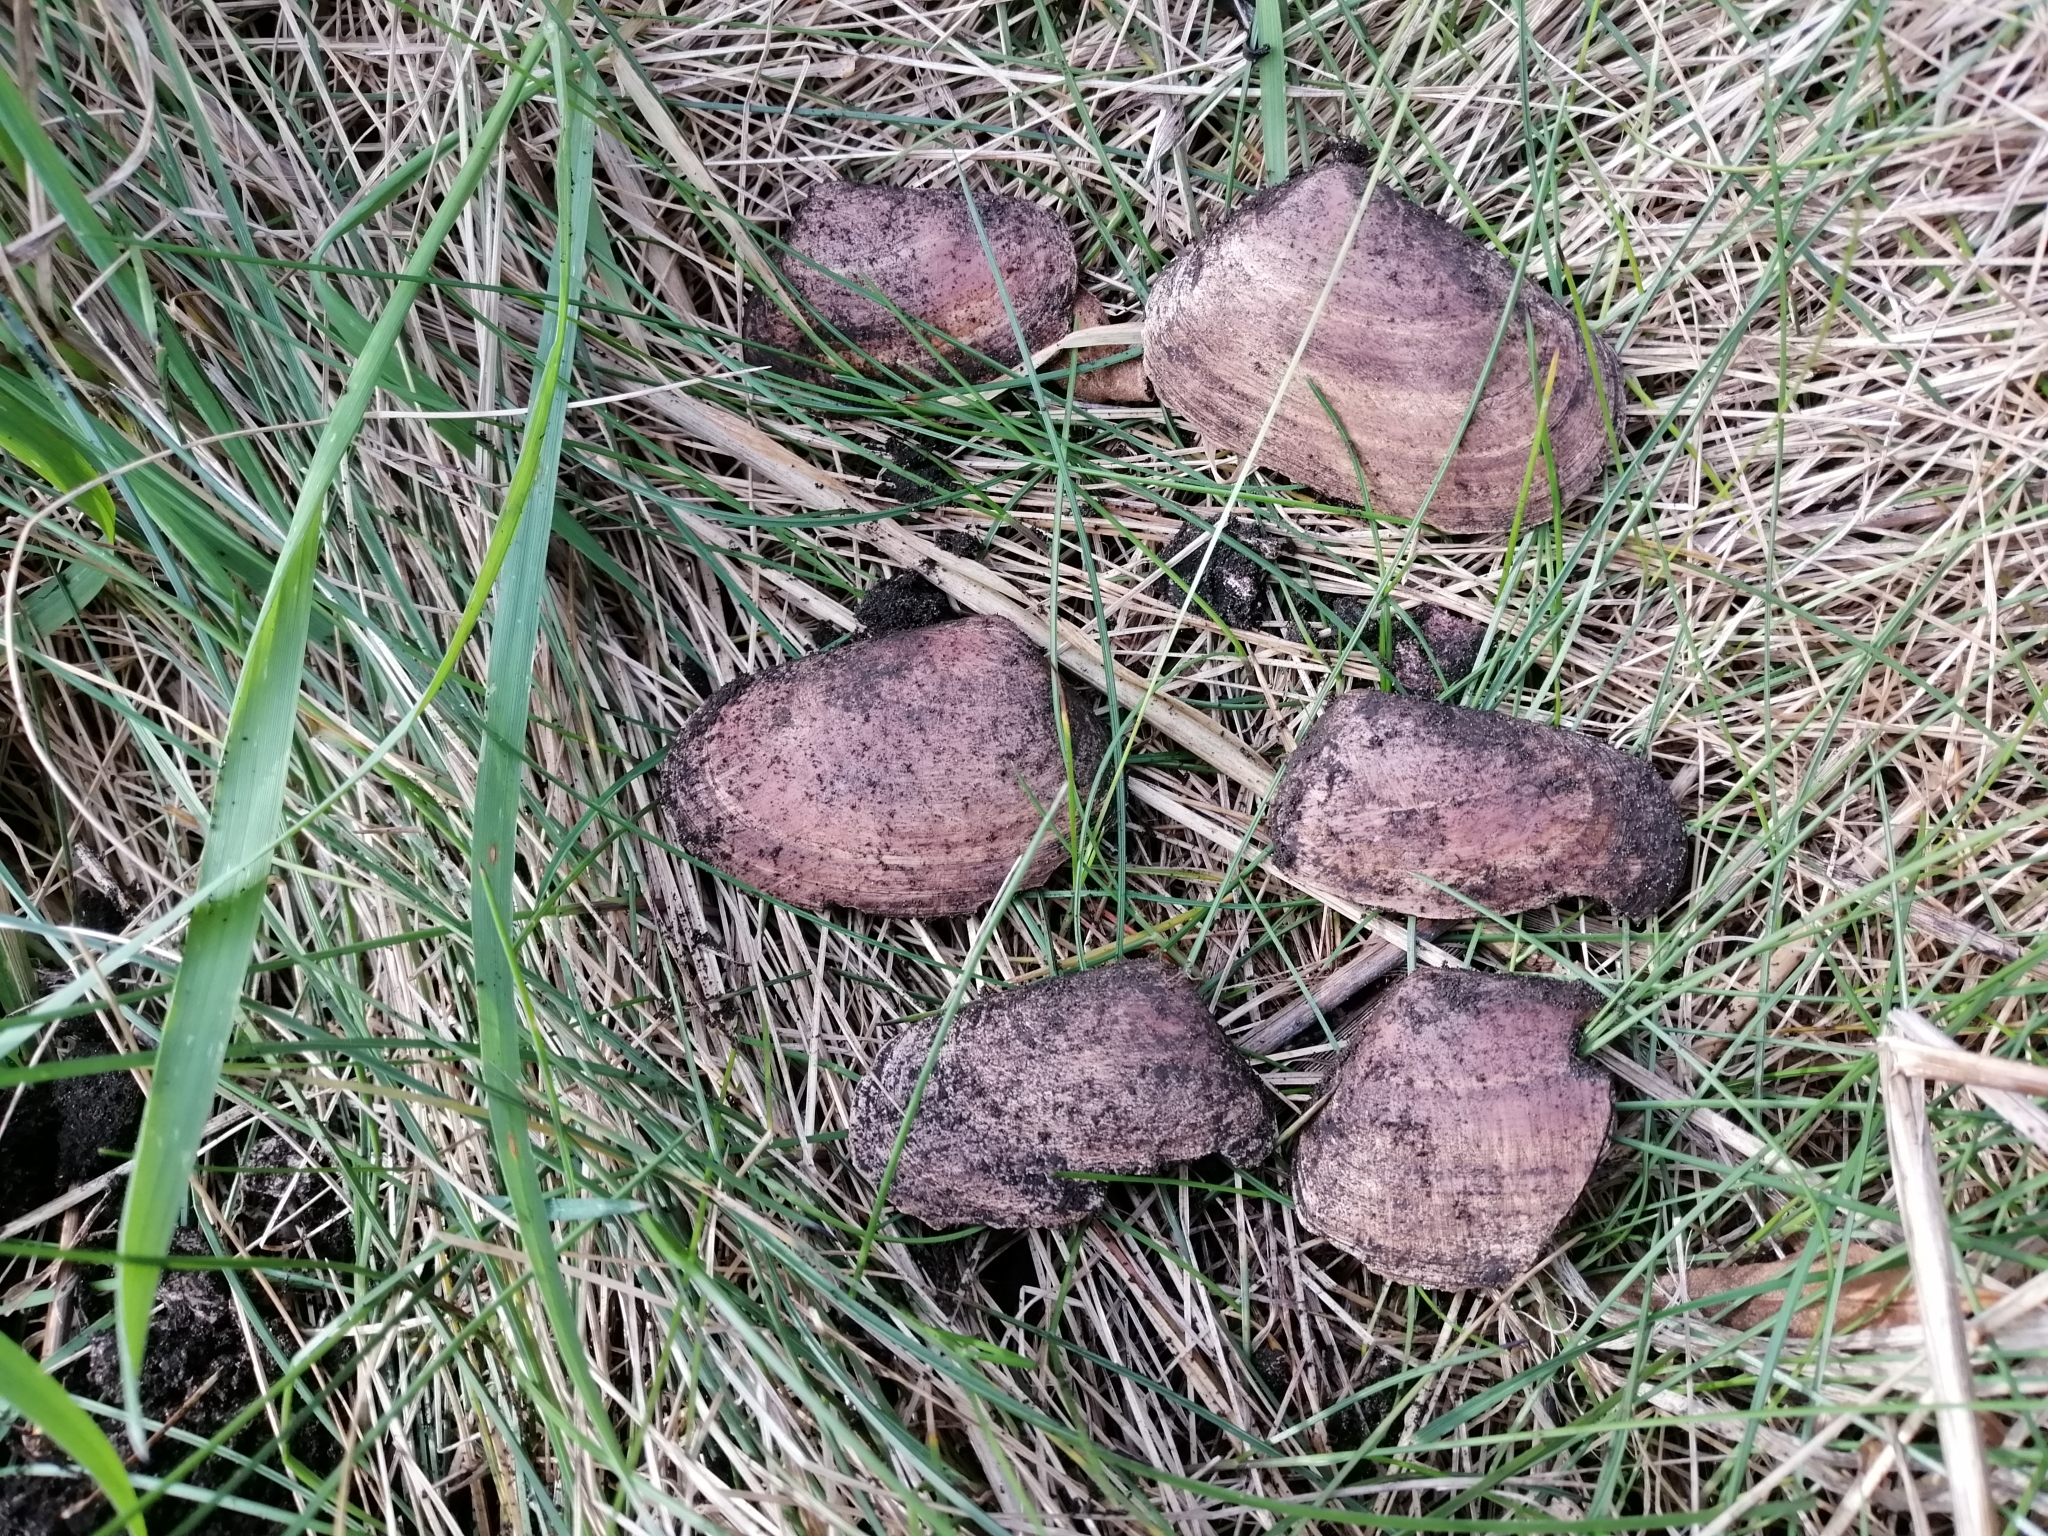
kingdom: Animalia
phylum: Mollusca
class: Bivalvia
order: Venerida
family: Mesodesmatidae
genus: Paphies
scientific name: Paphies donacina
